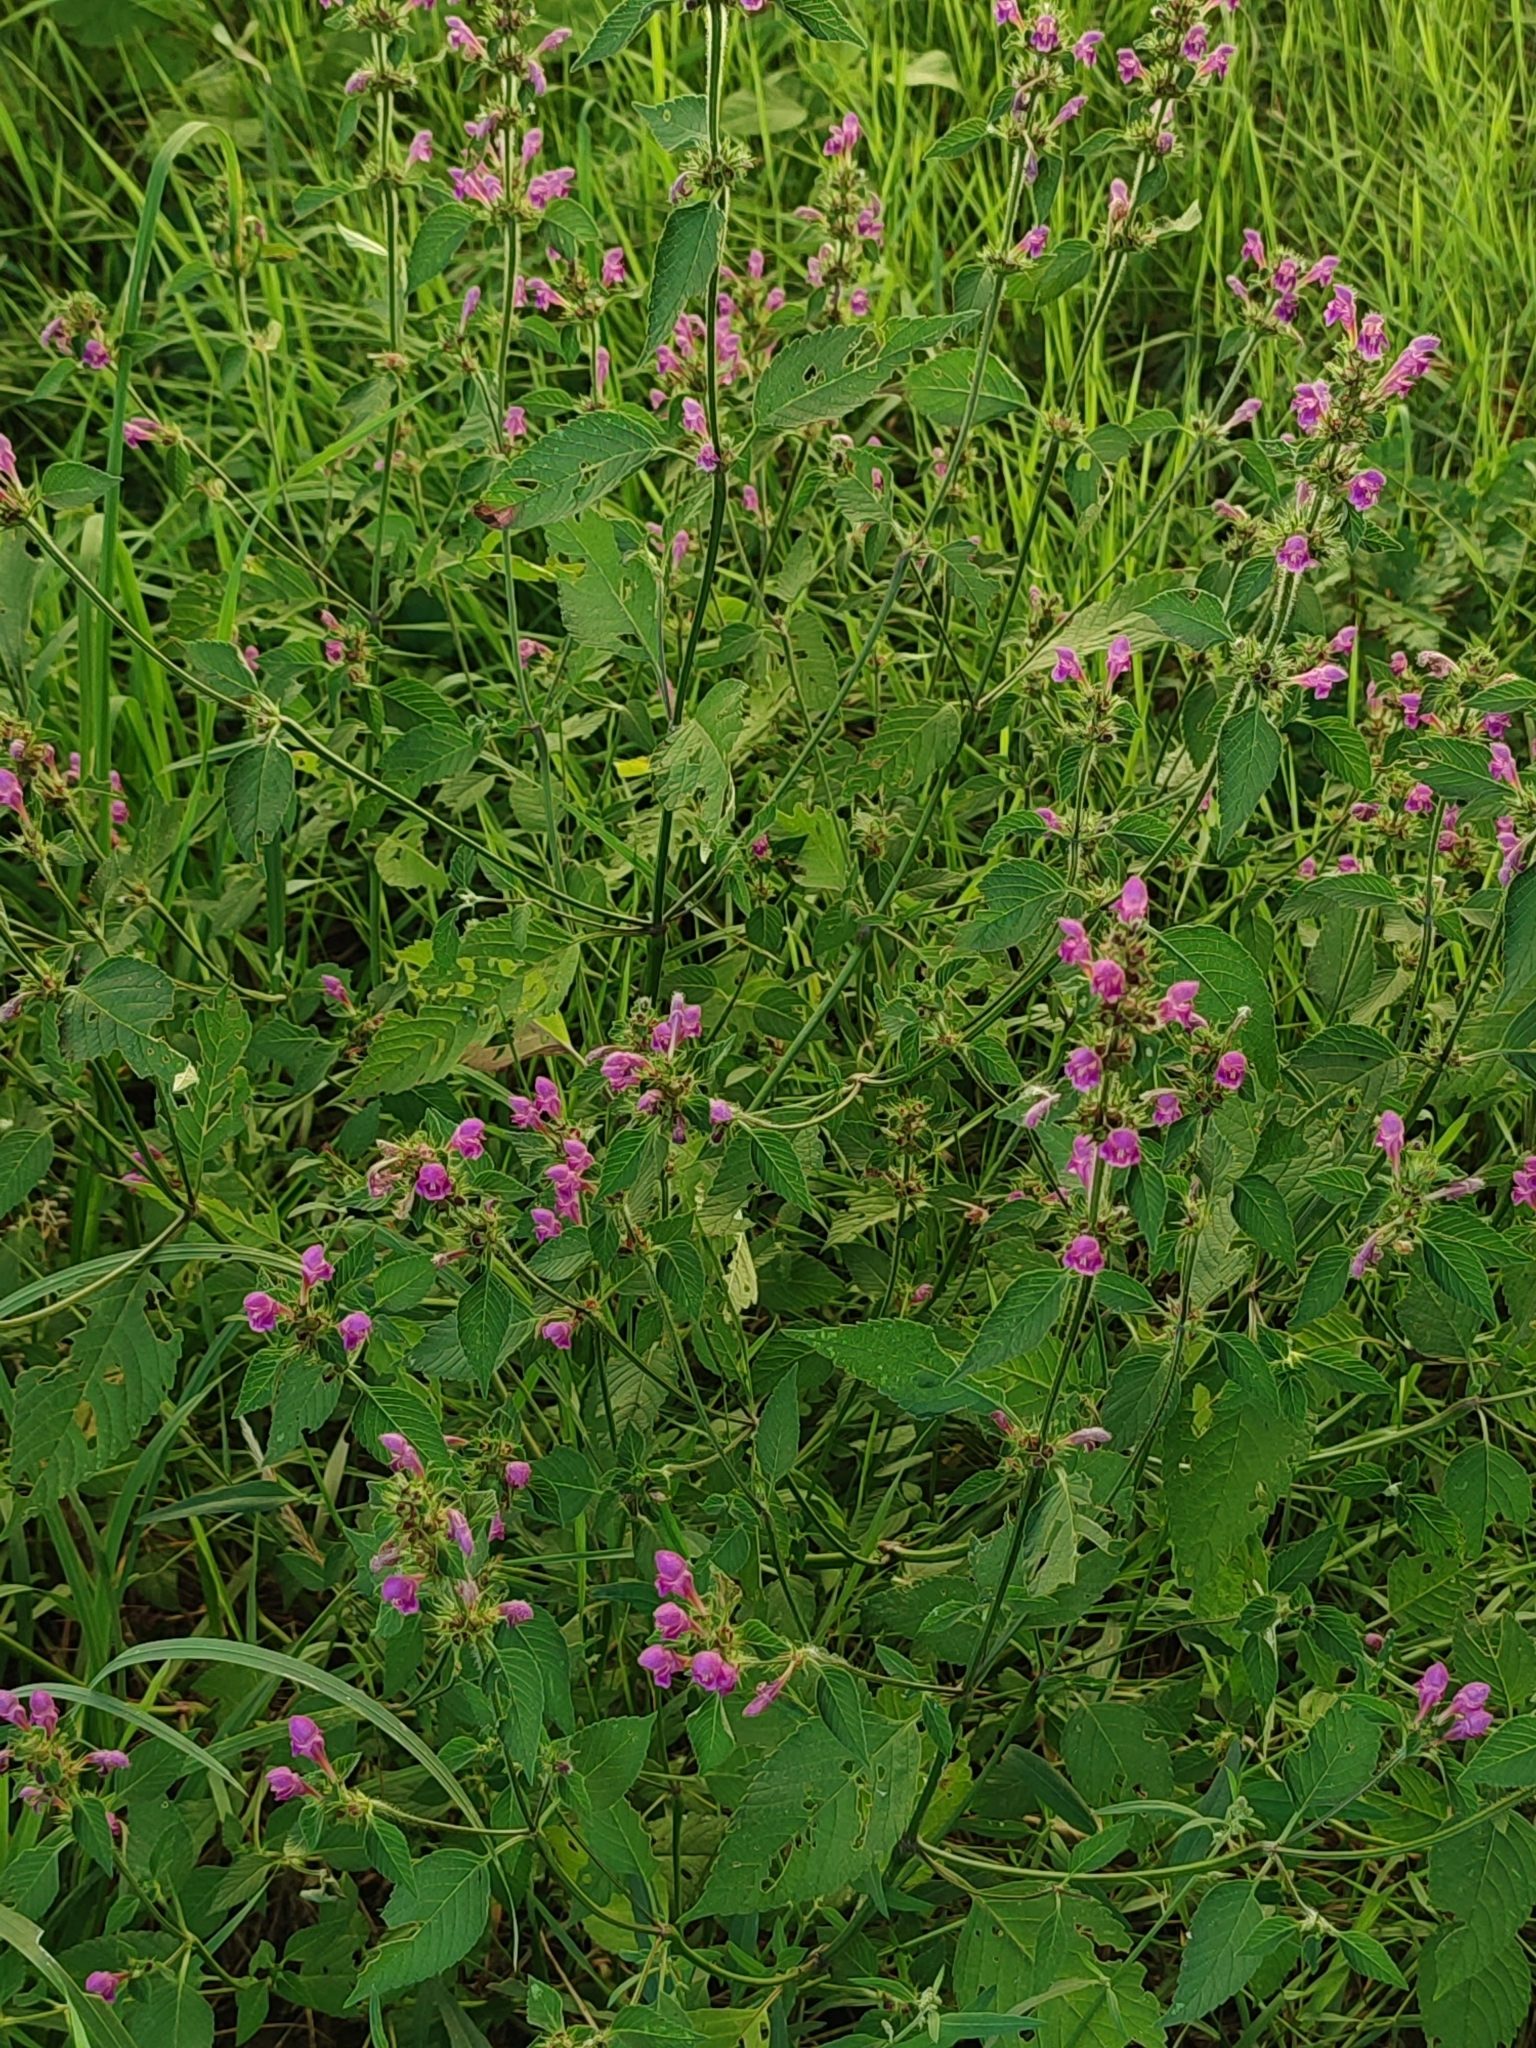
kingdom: Plantae
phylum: Tracheophyta
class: Magnoliopsida
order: Lamiales
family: Lamiaceae
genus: Galeopsis
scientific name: Galeopsis pubescens
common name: Downy hemp-nettle
